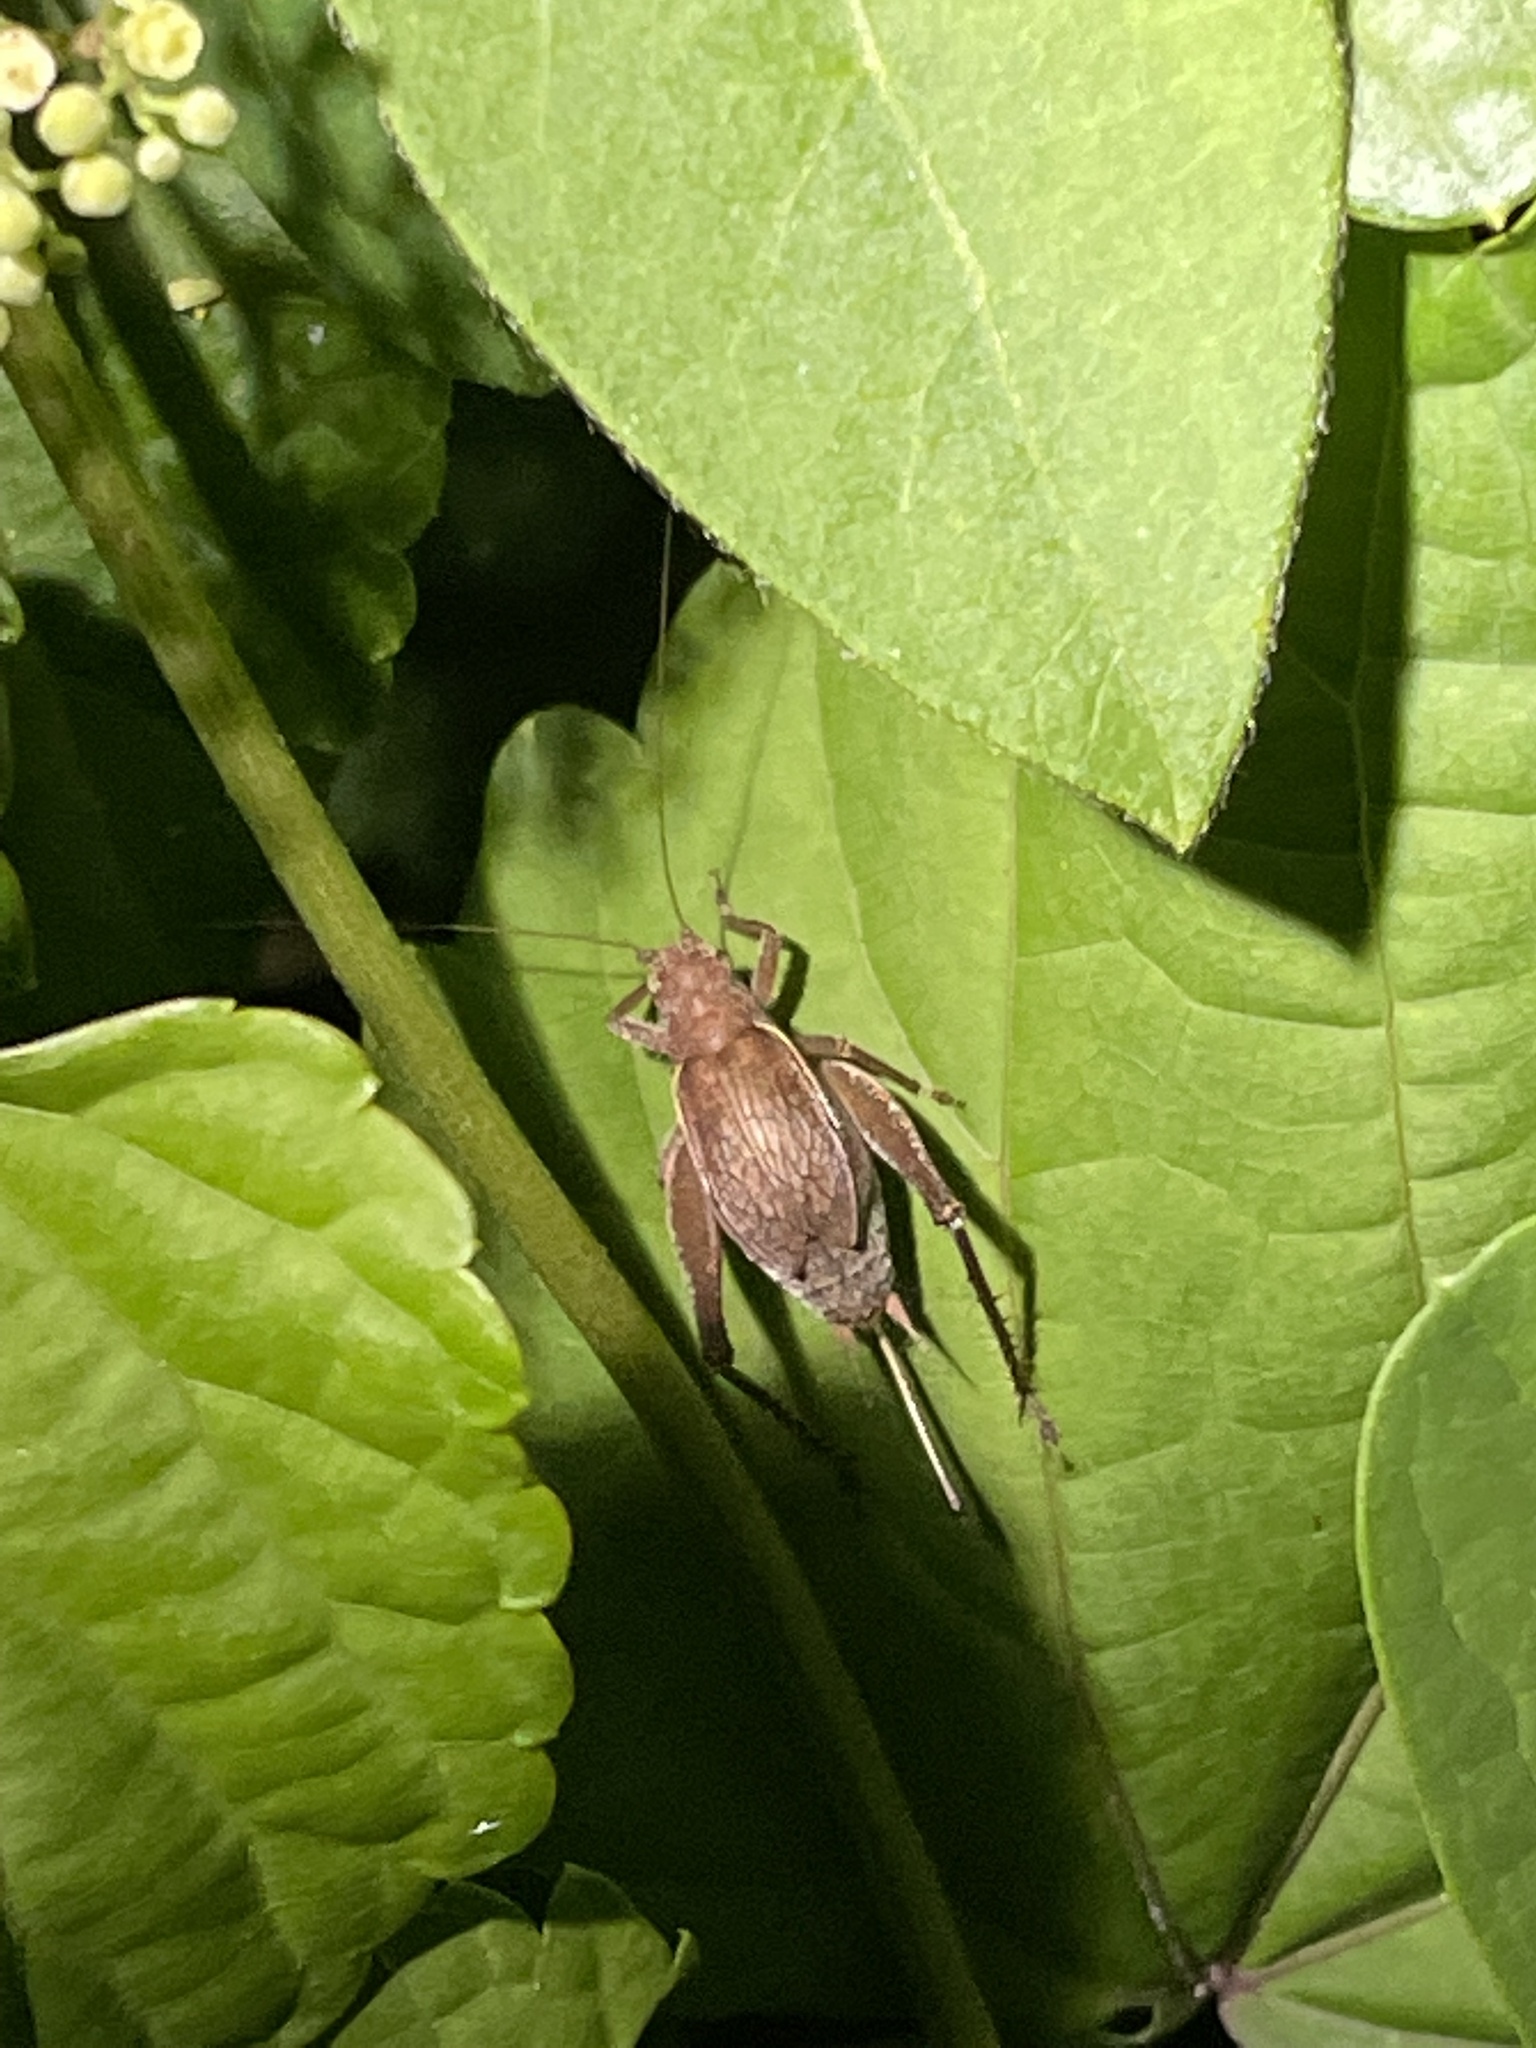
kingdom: Animalia
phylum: Arthropoda
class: Insecta
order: Orthoptera
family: Gryllidae
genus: Hapithus
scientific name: Hapithus agitator
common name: Restless bush cricket
